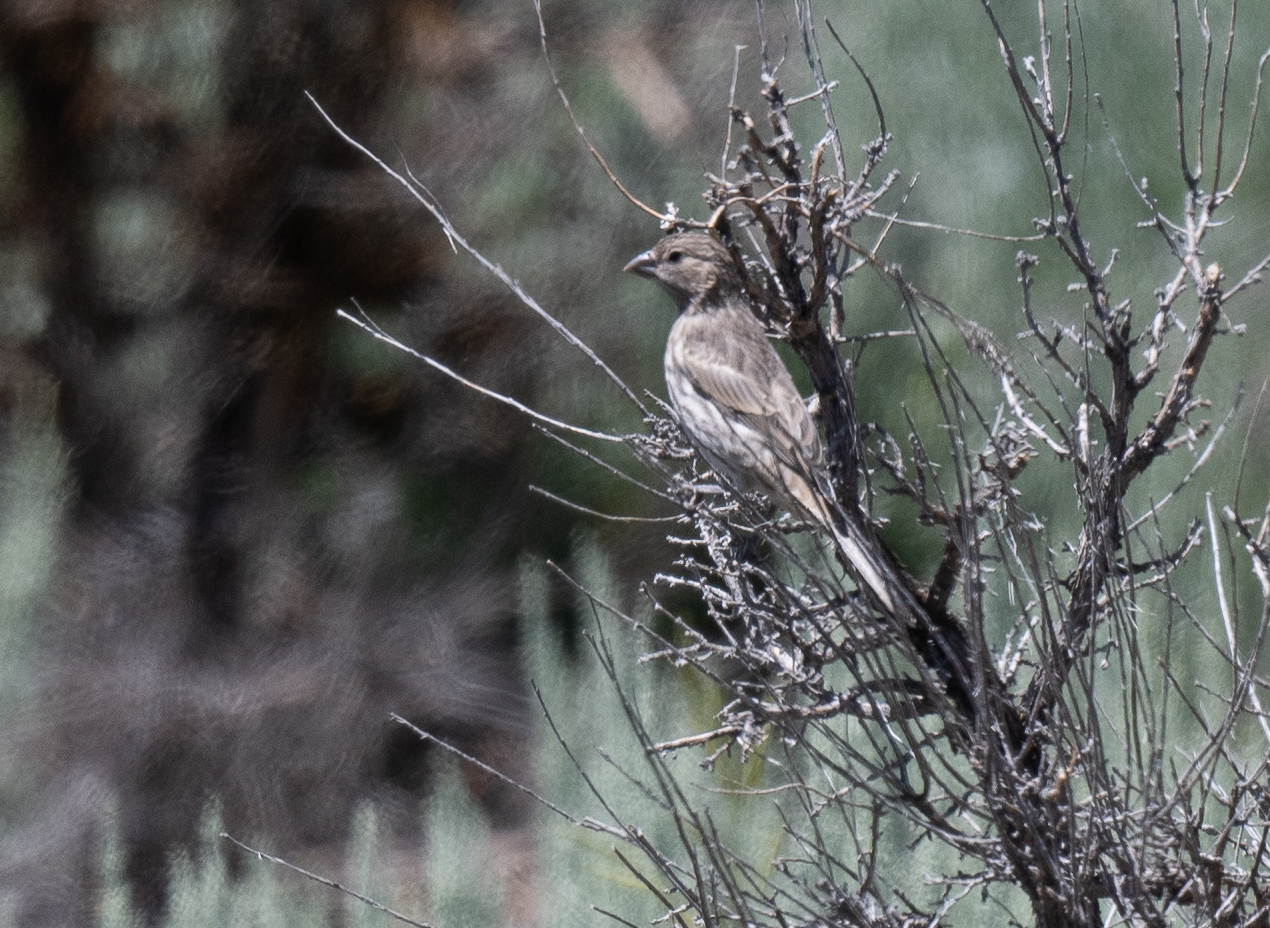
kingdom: Animalia
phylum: Chordata
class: Aves
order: Passeriformes
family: Fringillidae
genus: Haemorhous
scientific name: Haemorhous mexicanus
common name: House finch
